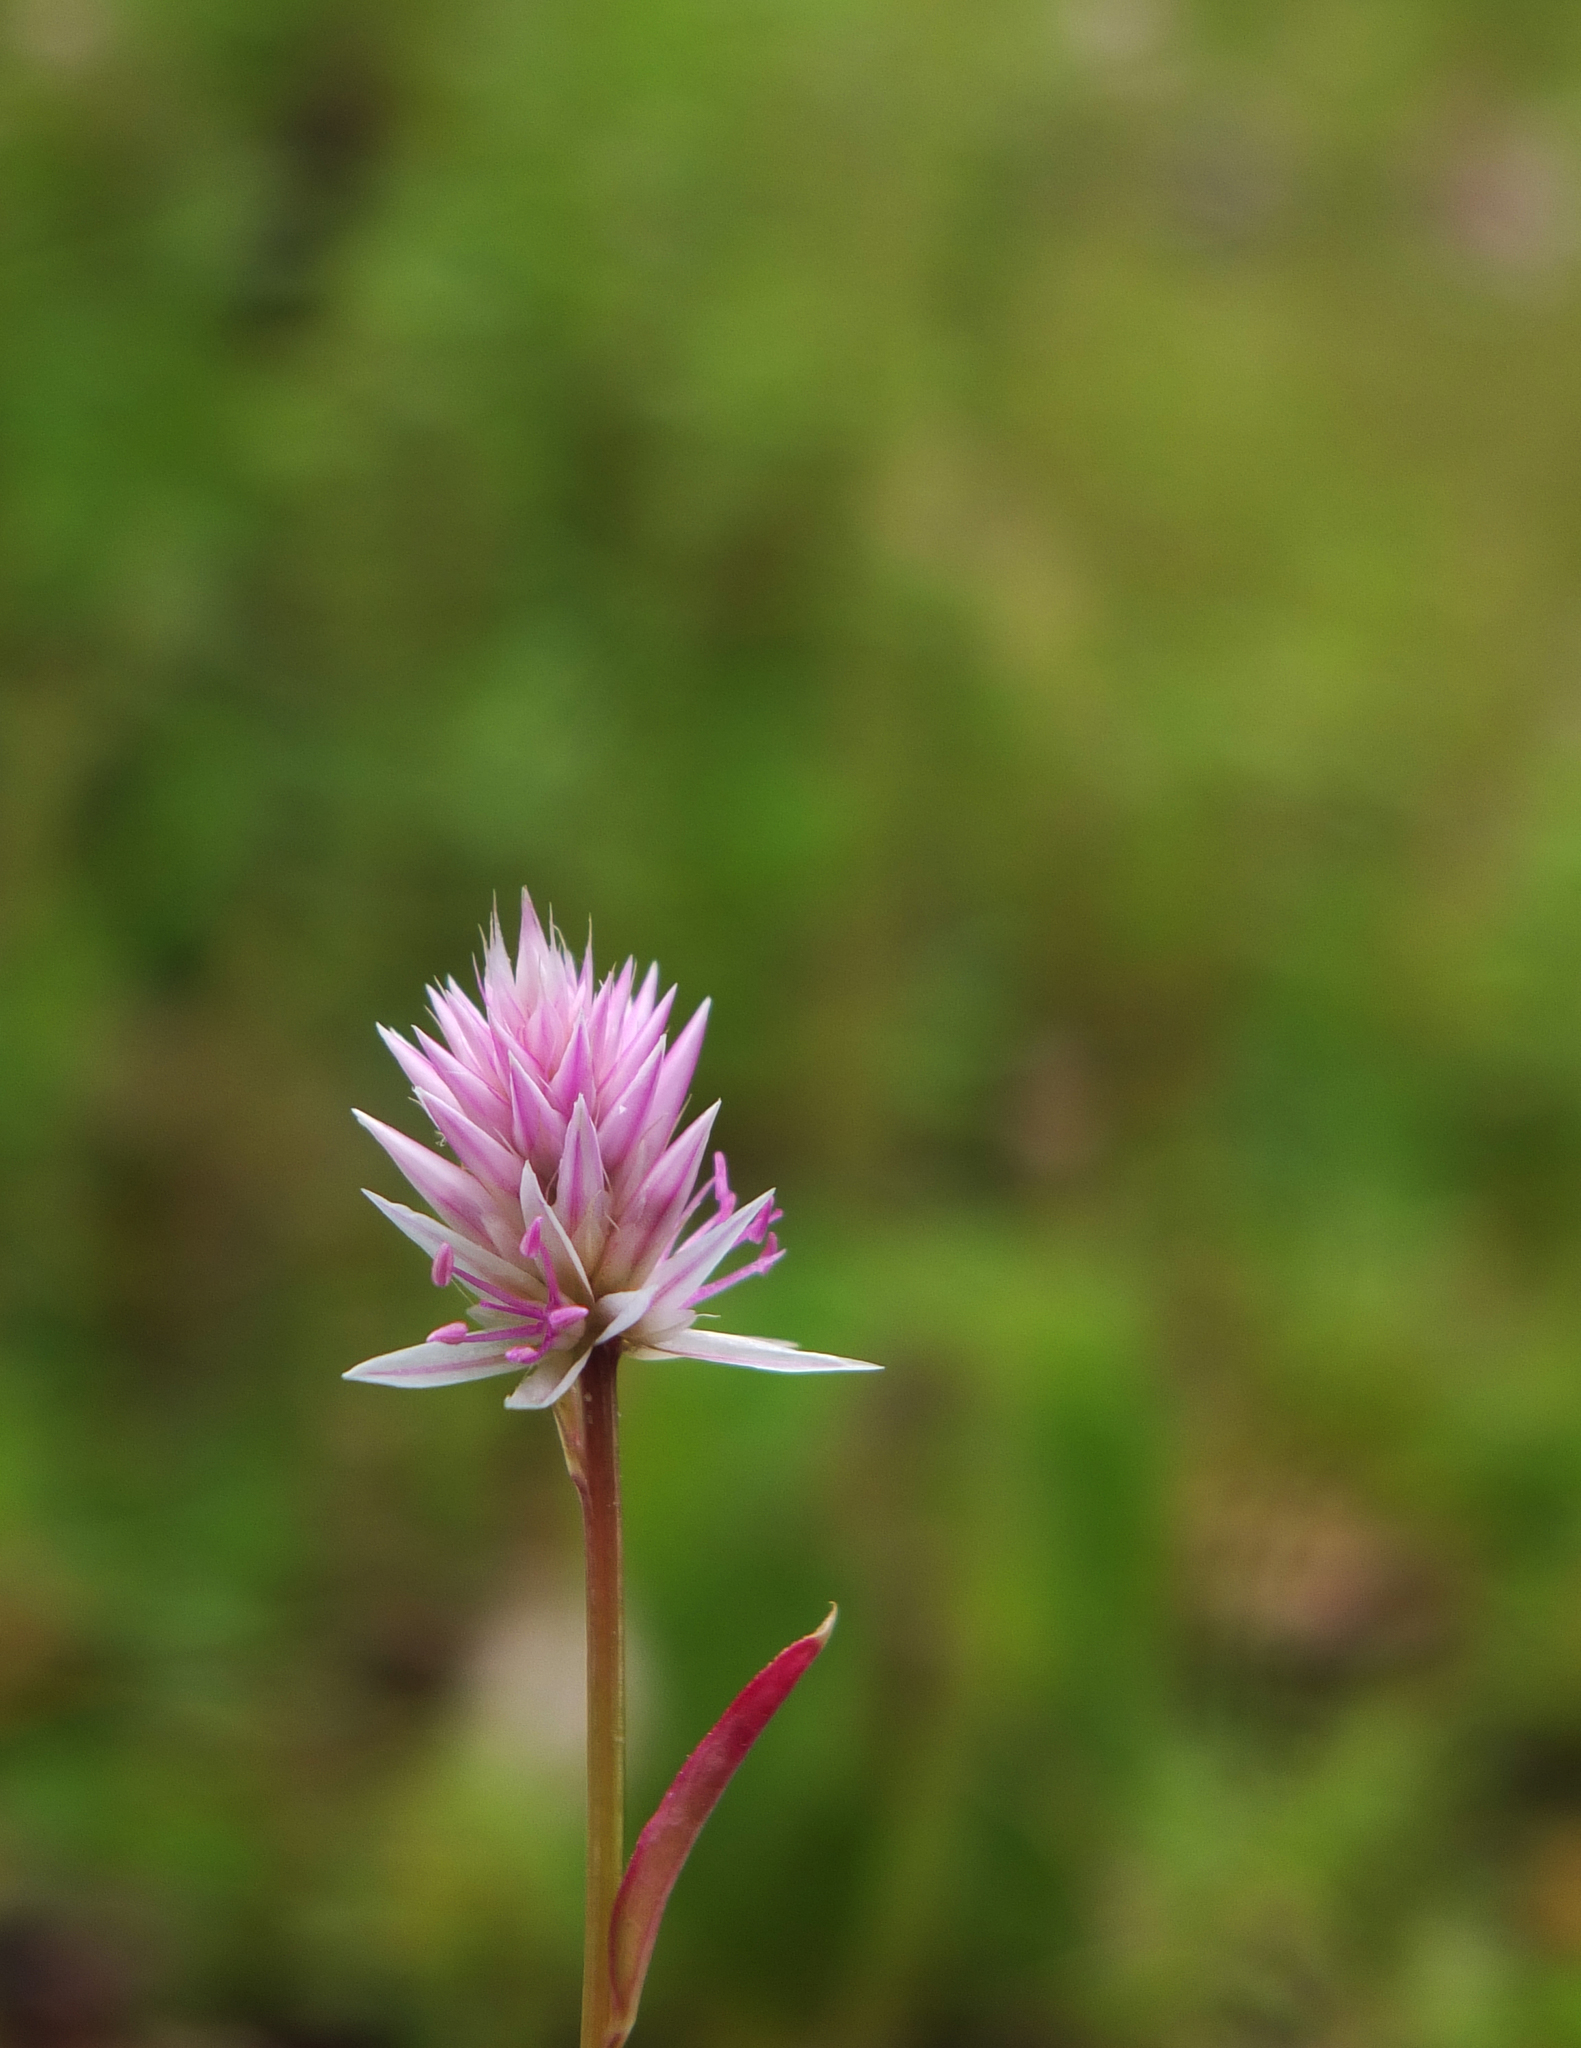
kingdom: Plantae
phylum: Tracheophyta
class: Magnoliopsida
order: Caryophyllales
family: Amaranthaceae
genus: Celosia
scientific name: Celosia argentea
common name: Feather cockscomb
